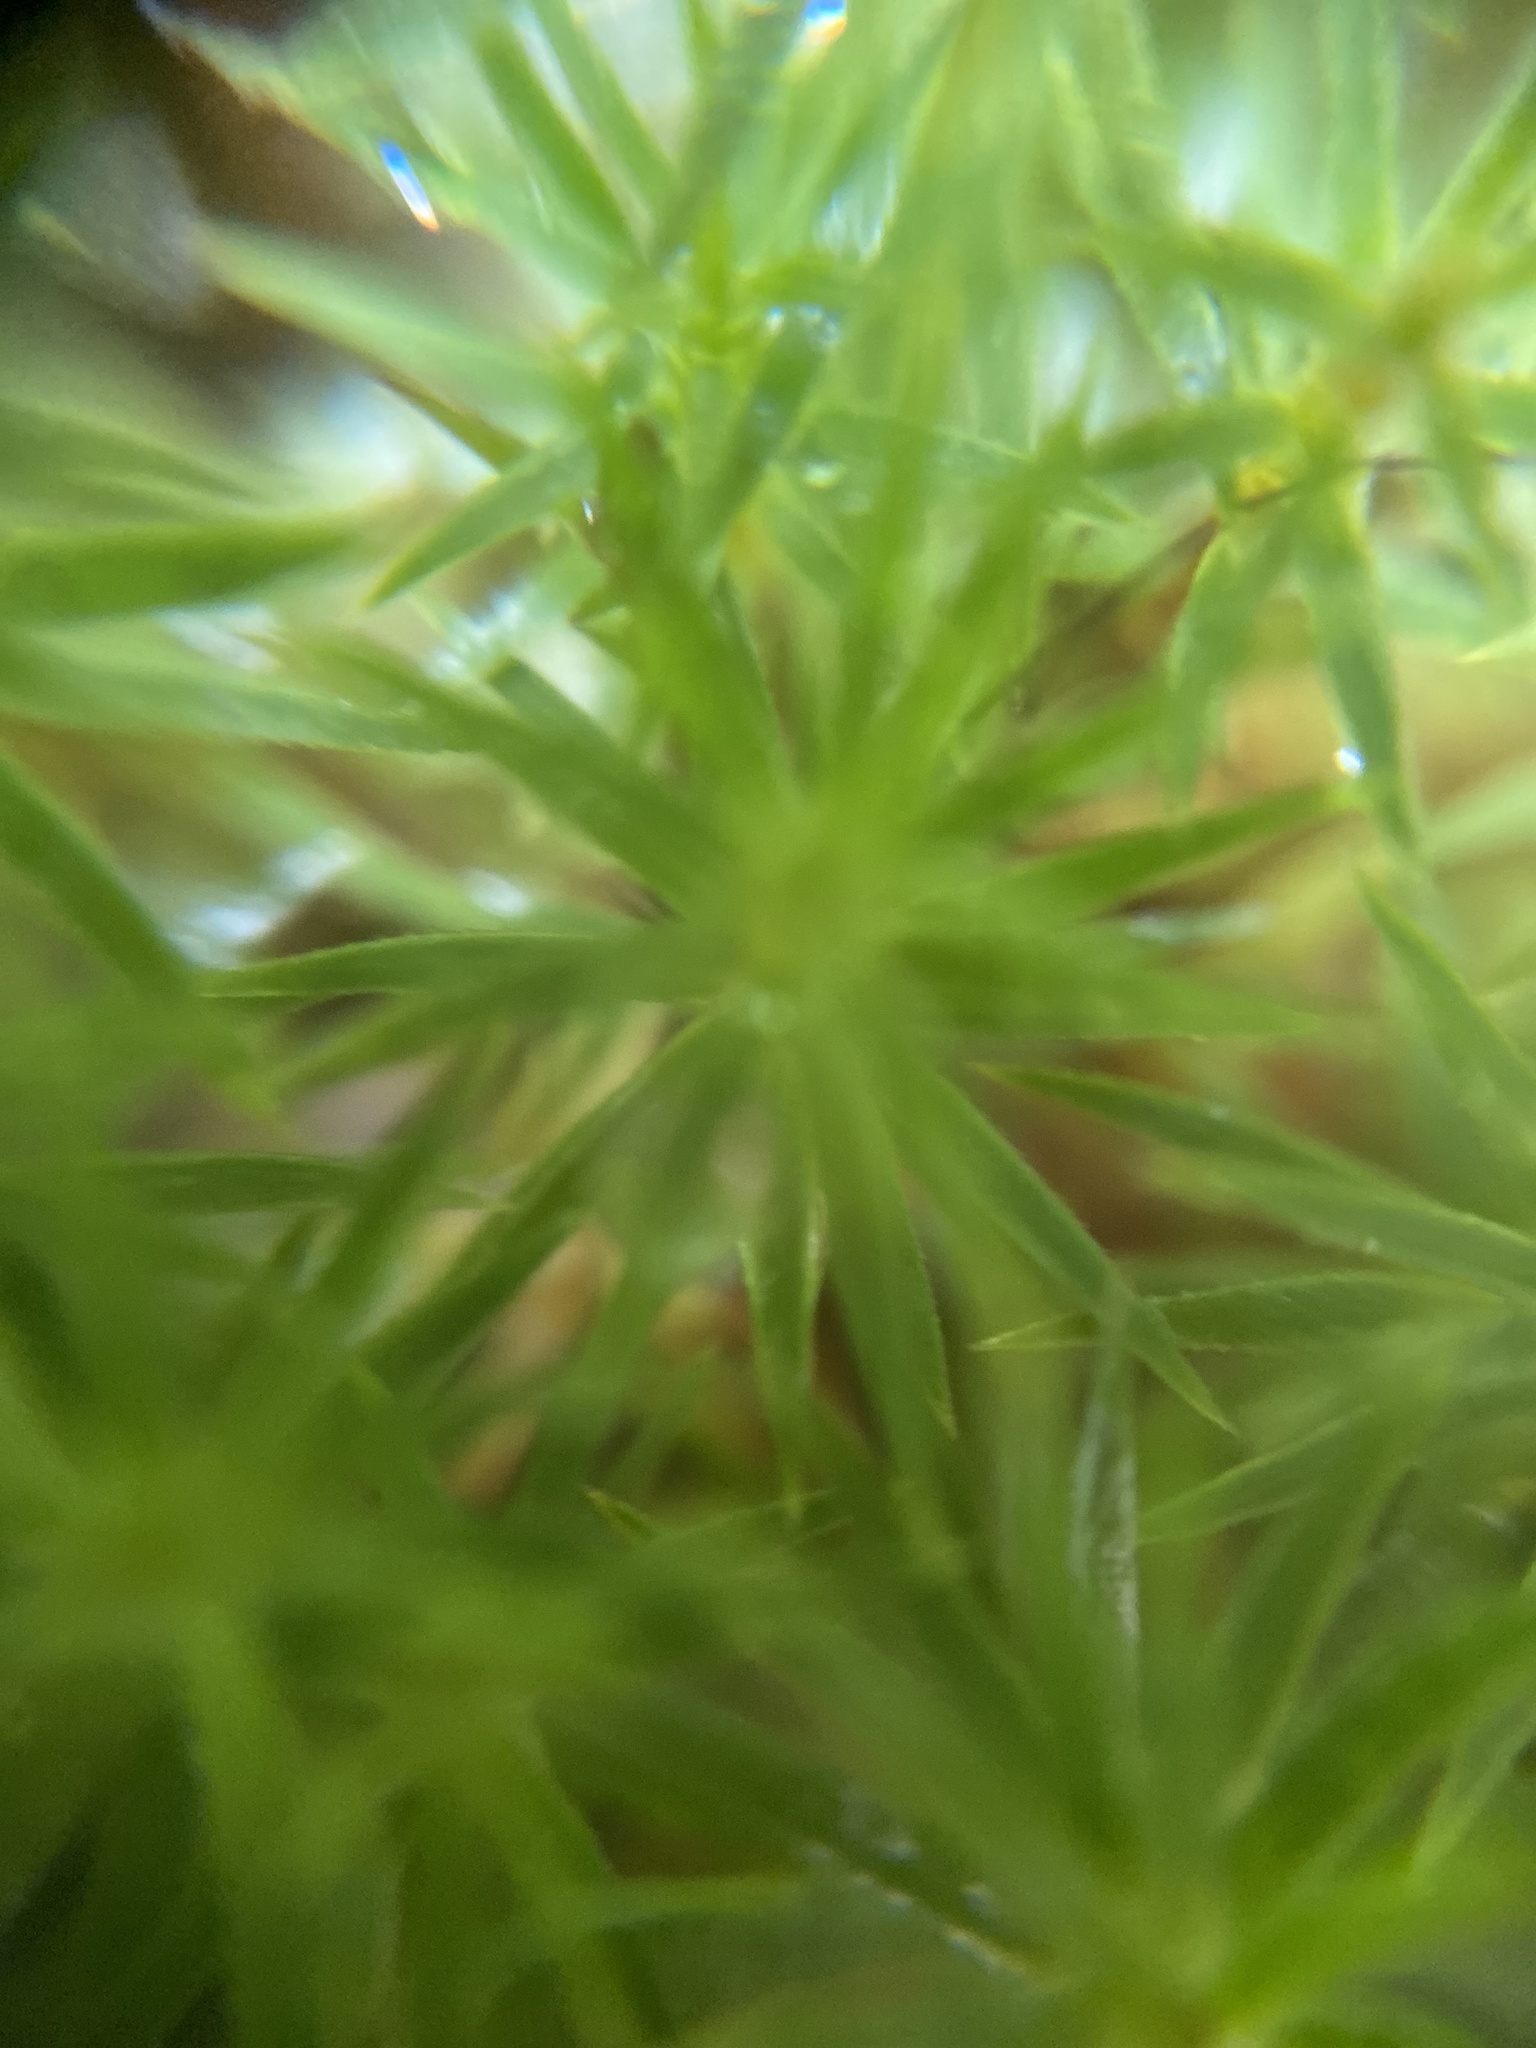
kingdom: Plantae
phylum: Bryophyta
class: Polytrichopsida
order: Polytrichales
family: Polytrichaceae
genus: Pogonatum
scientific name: Pogonatum urnigerum
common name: Urn hair moss
